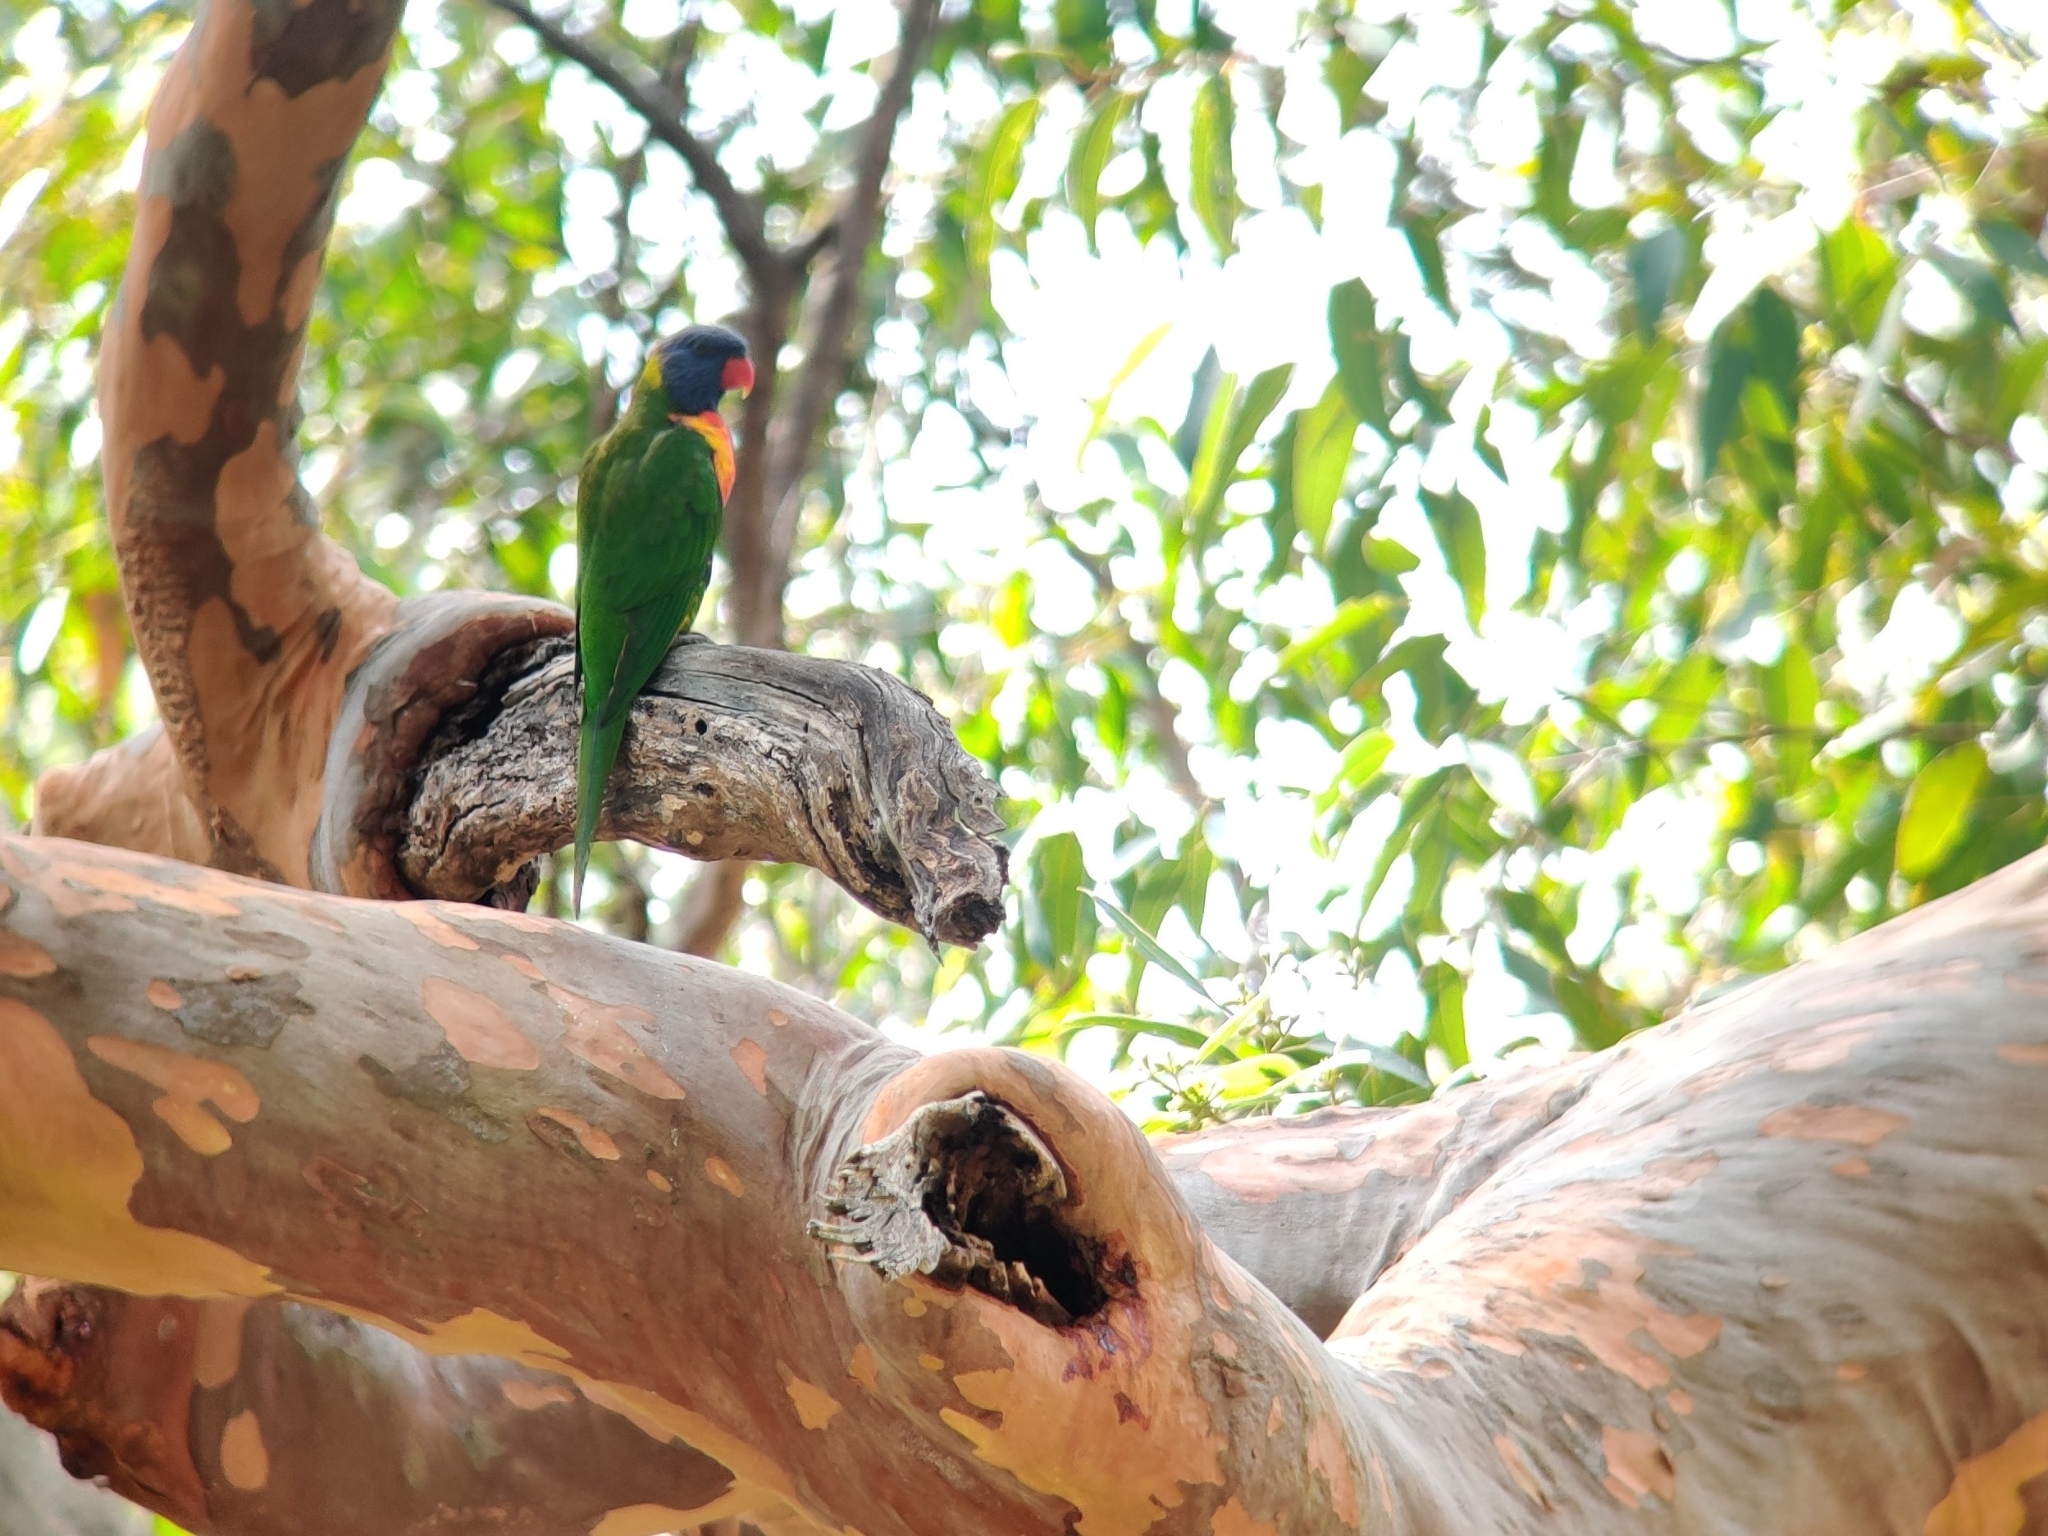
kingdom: Animalia
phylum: Chordata
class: Aves
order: Psittaciformes
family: Psittacidae
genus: Trichoglossus
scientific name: Trichoglossus haematodus
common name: Coconut lorikeet
